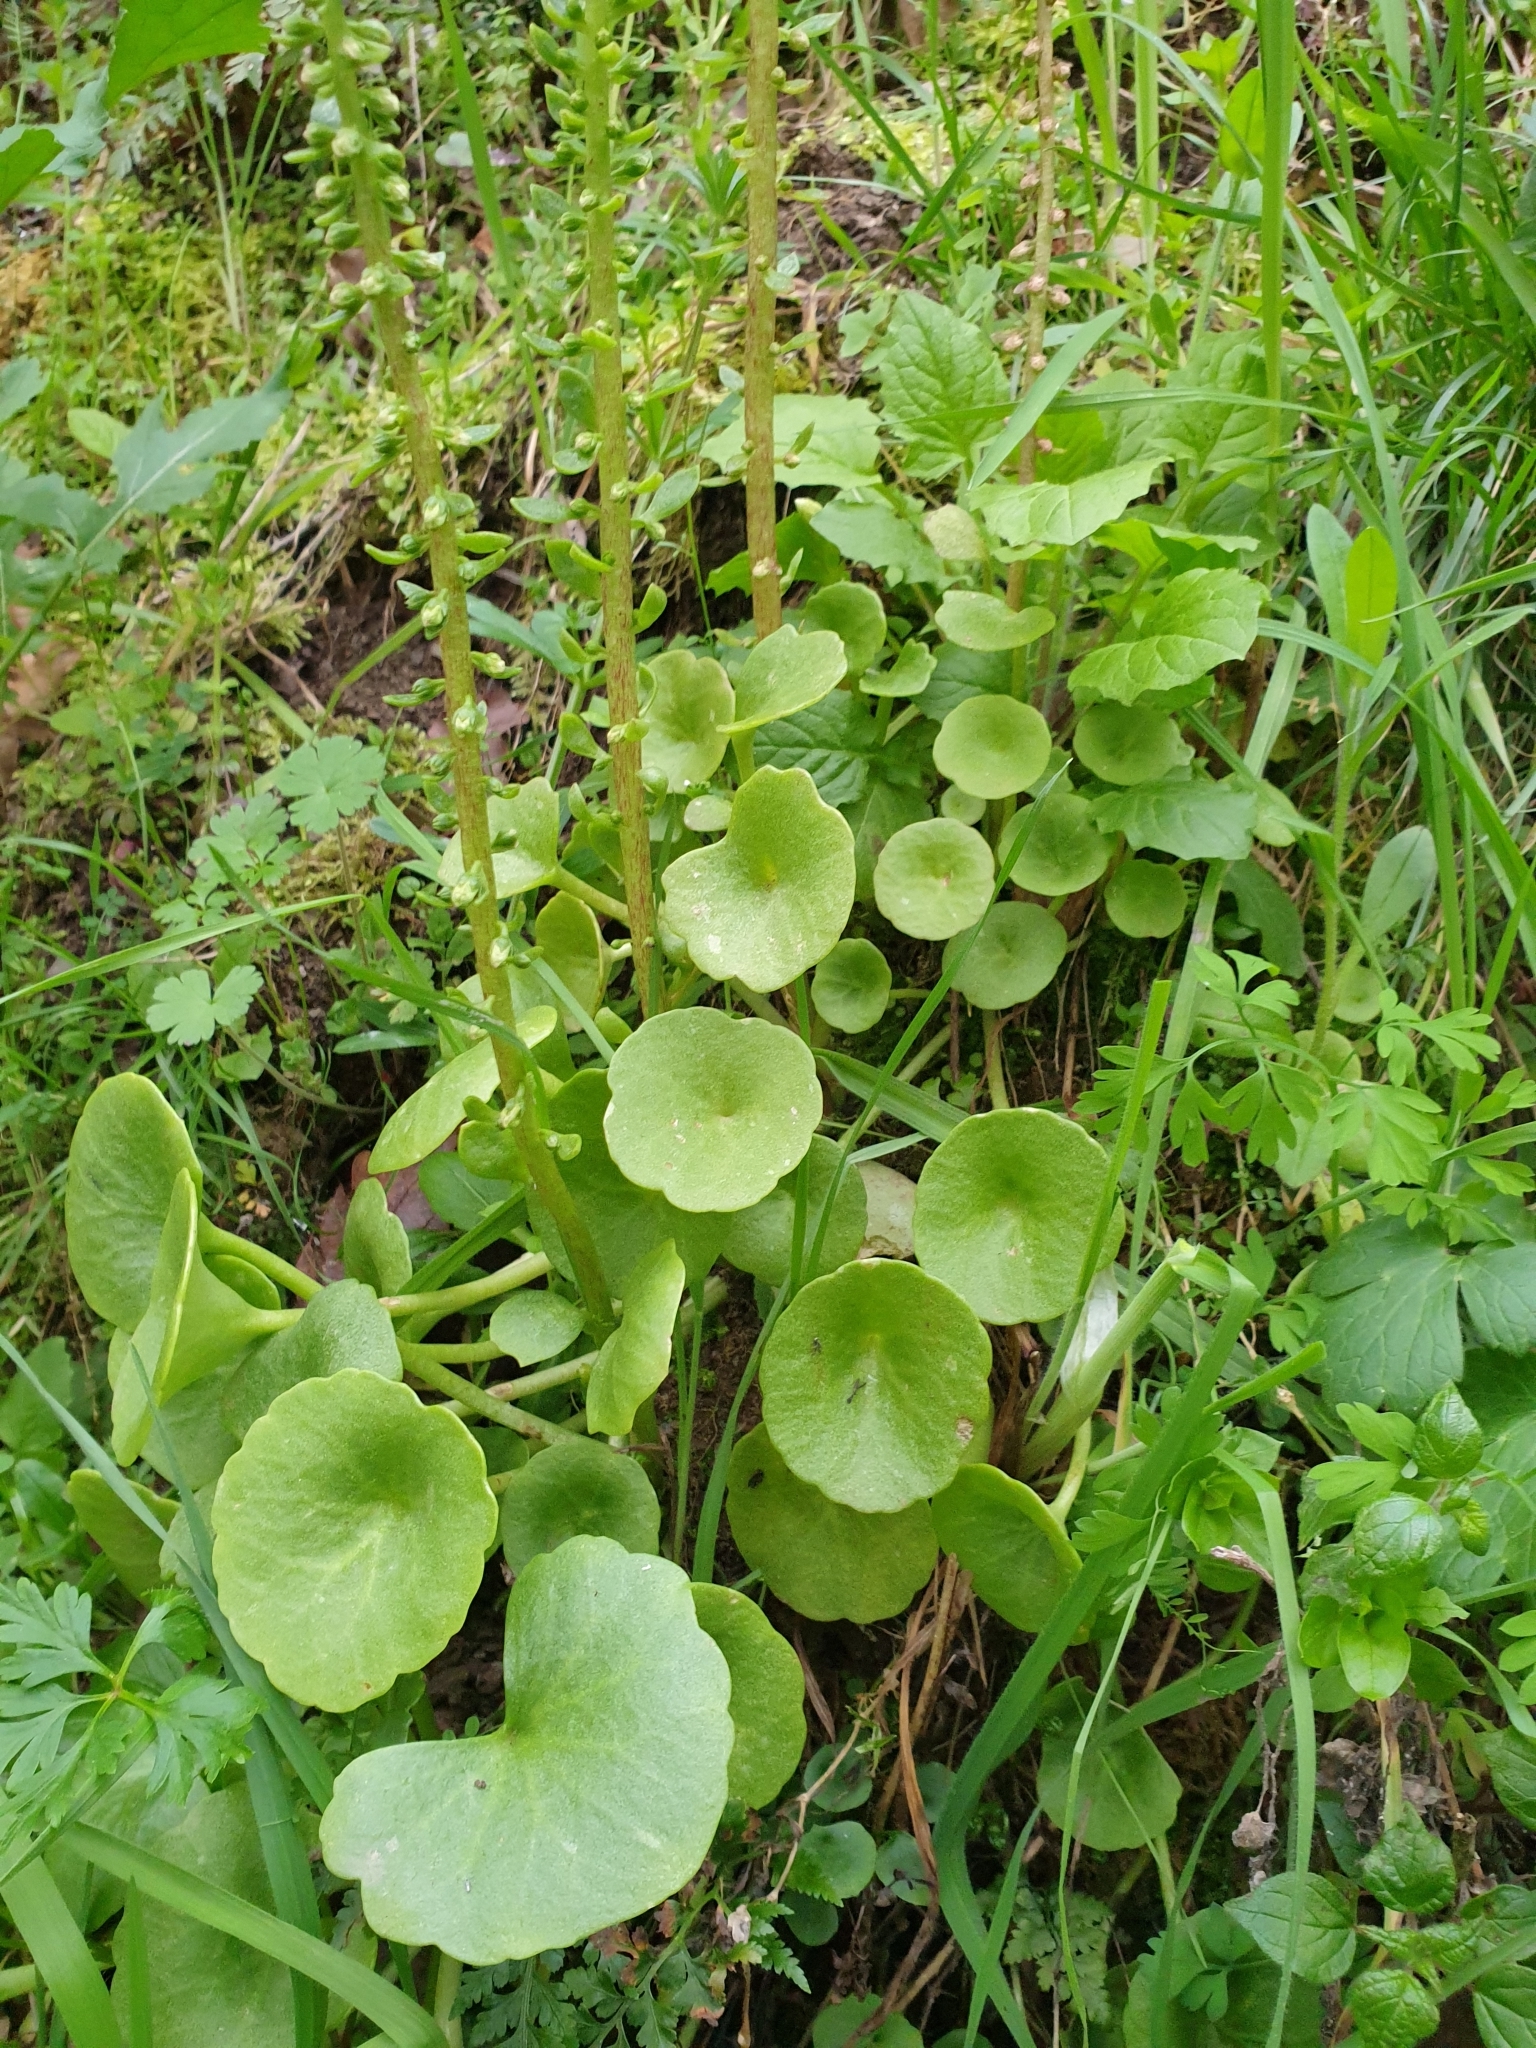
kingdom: Plantae
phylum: Tracheophyta
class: Magnoliopsida
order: Saxifragales
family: Crassulaceae
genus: Umbilicus
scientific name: Umbilicus rupestris
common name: Navelwort
